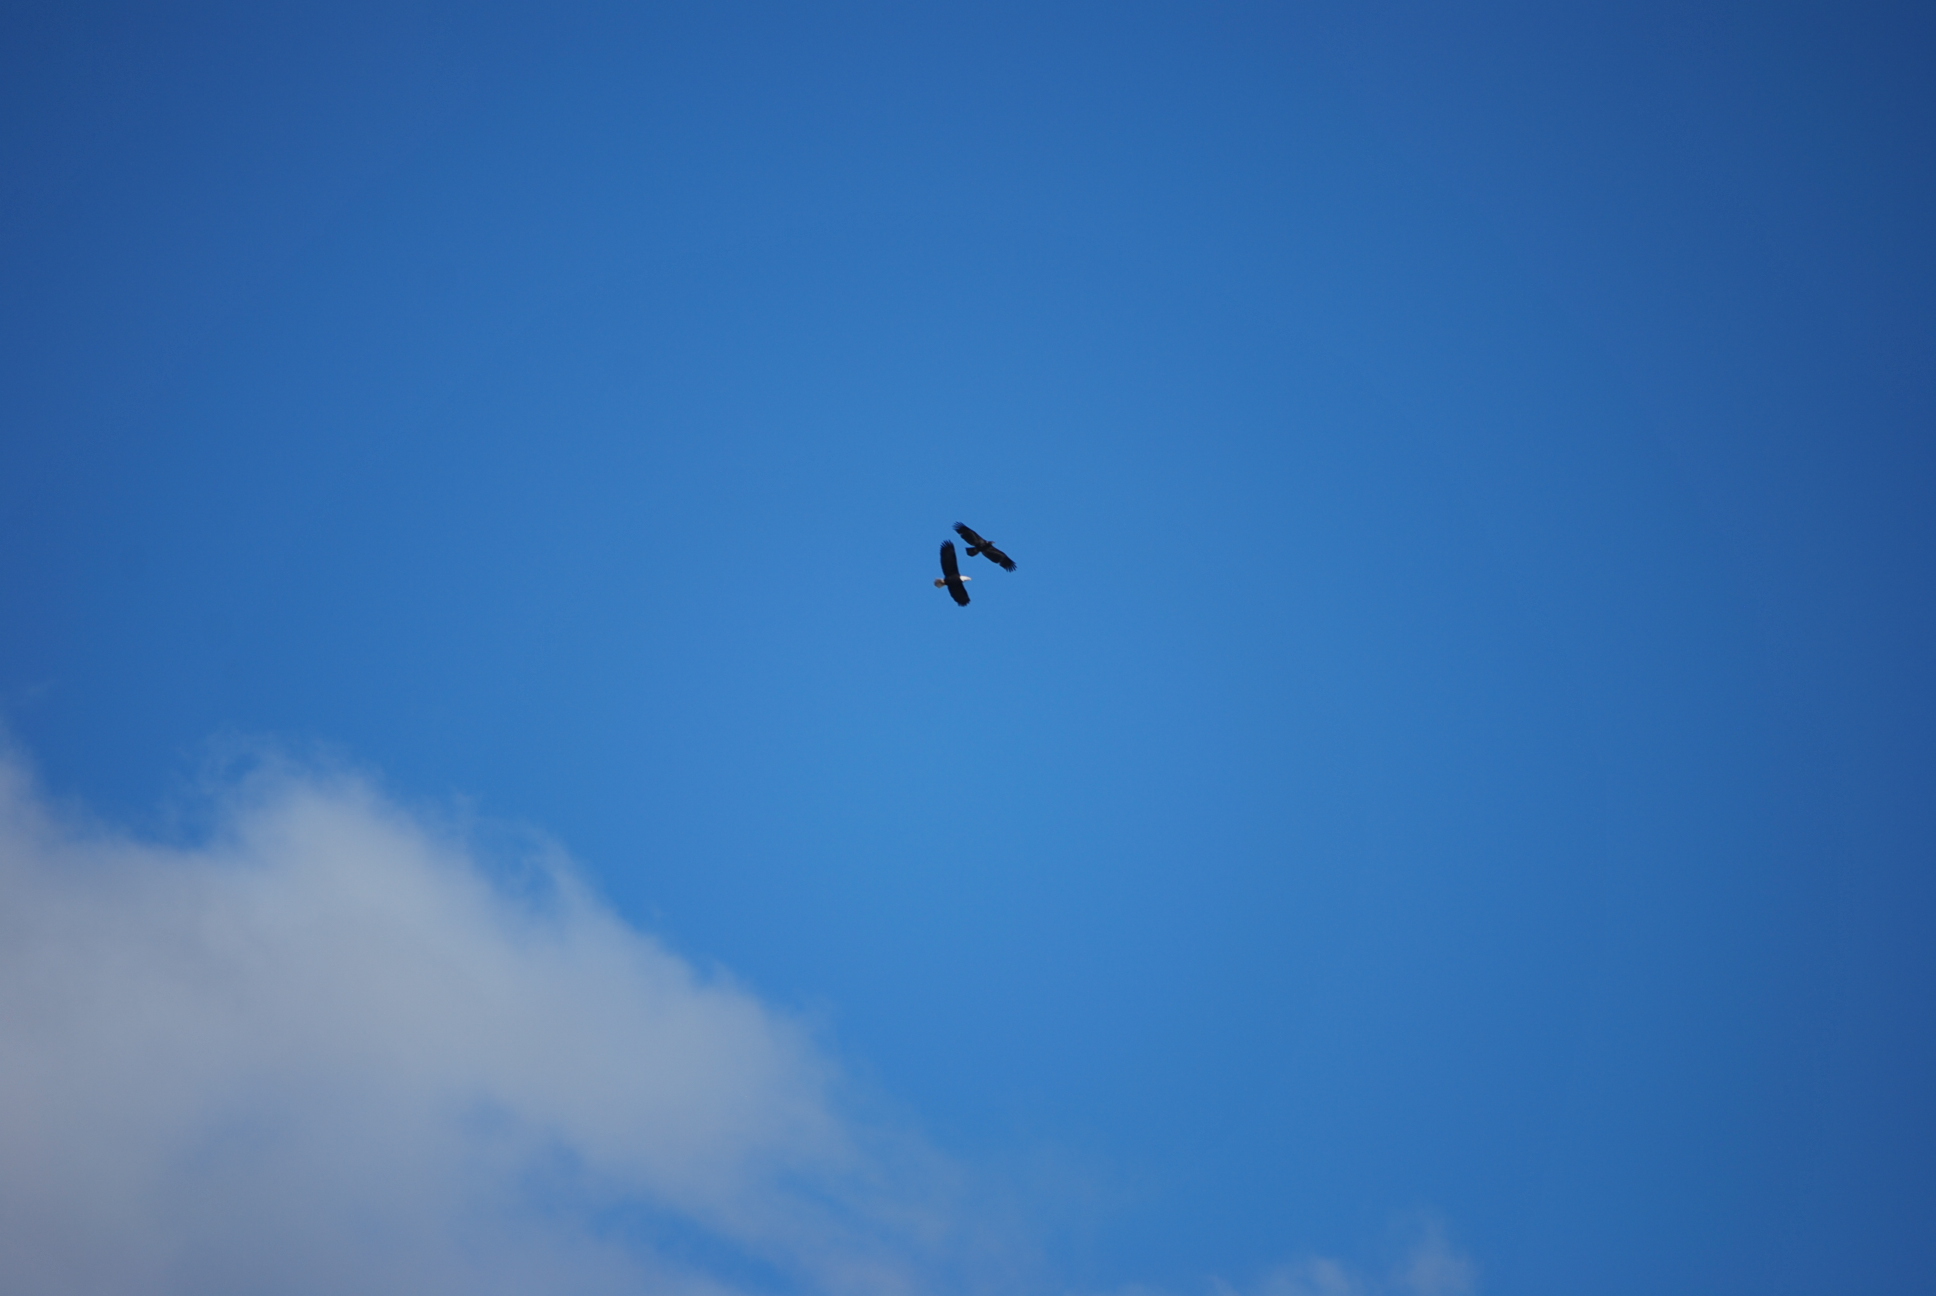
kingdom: Animalia
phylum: Chordata
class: Aves
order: Accipitriformes
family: Accipitridae
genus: Haliaeetus
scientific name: Haliaeetus leucocephalus
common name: Bald eagle
